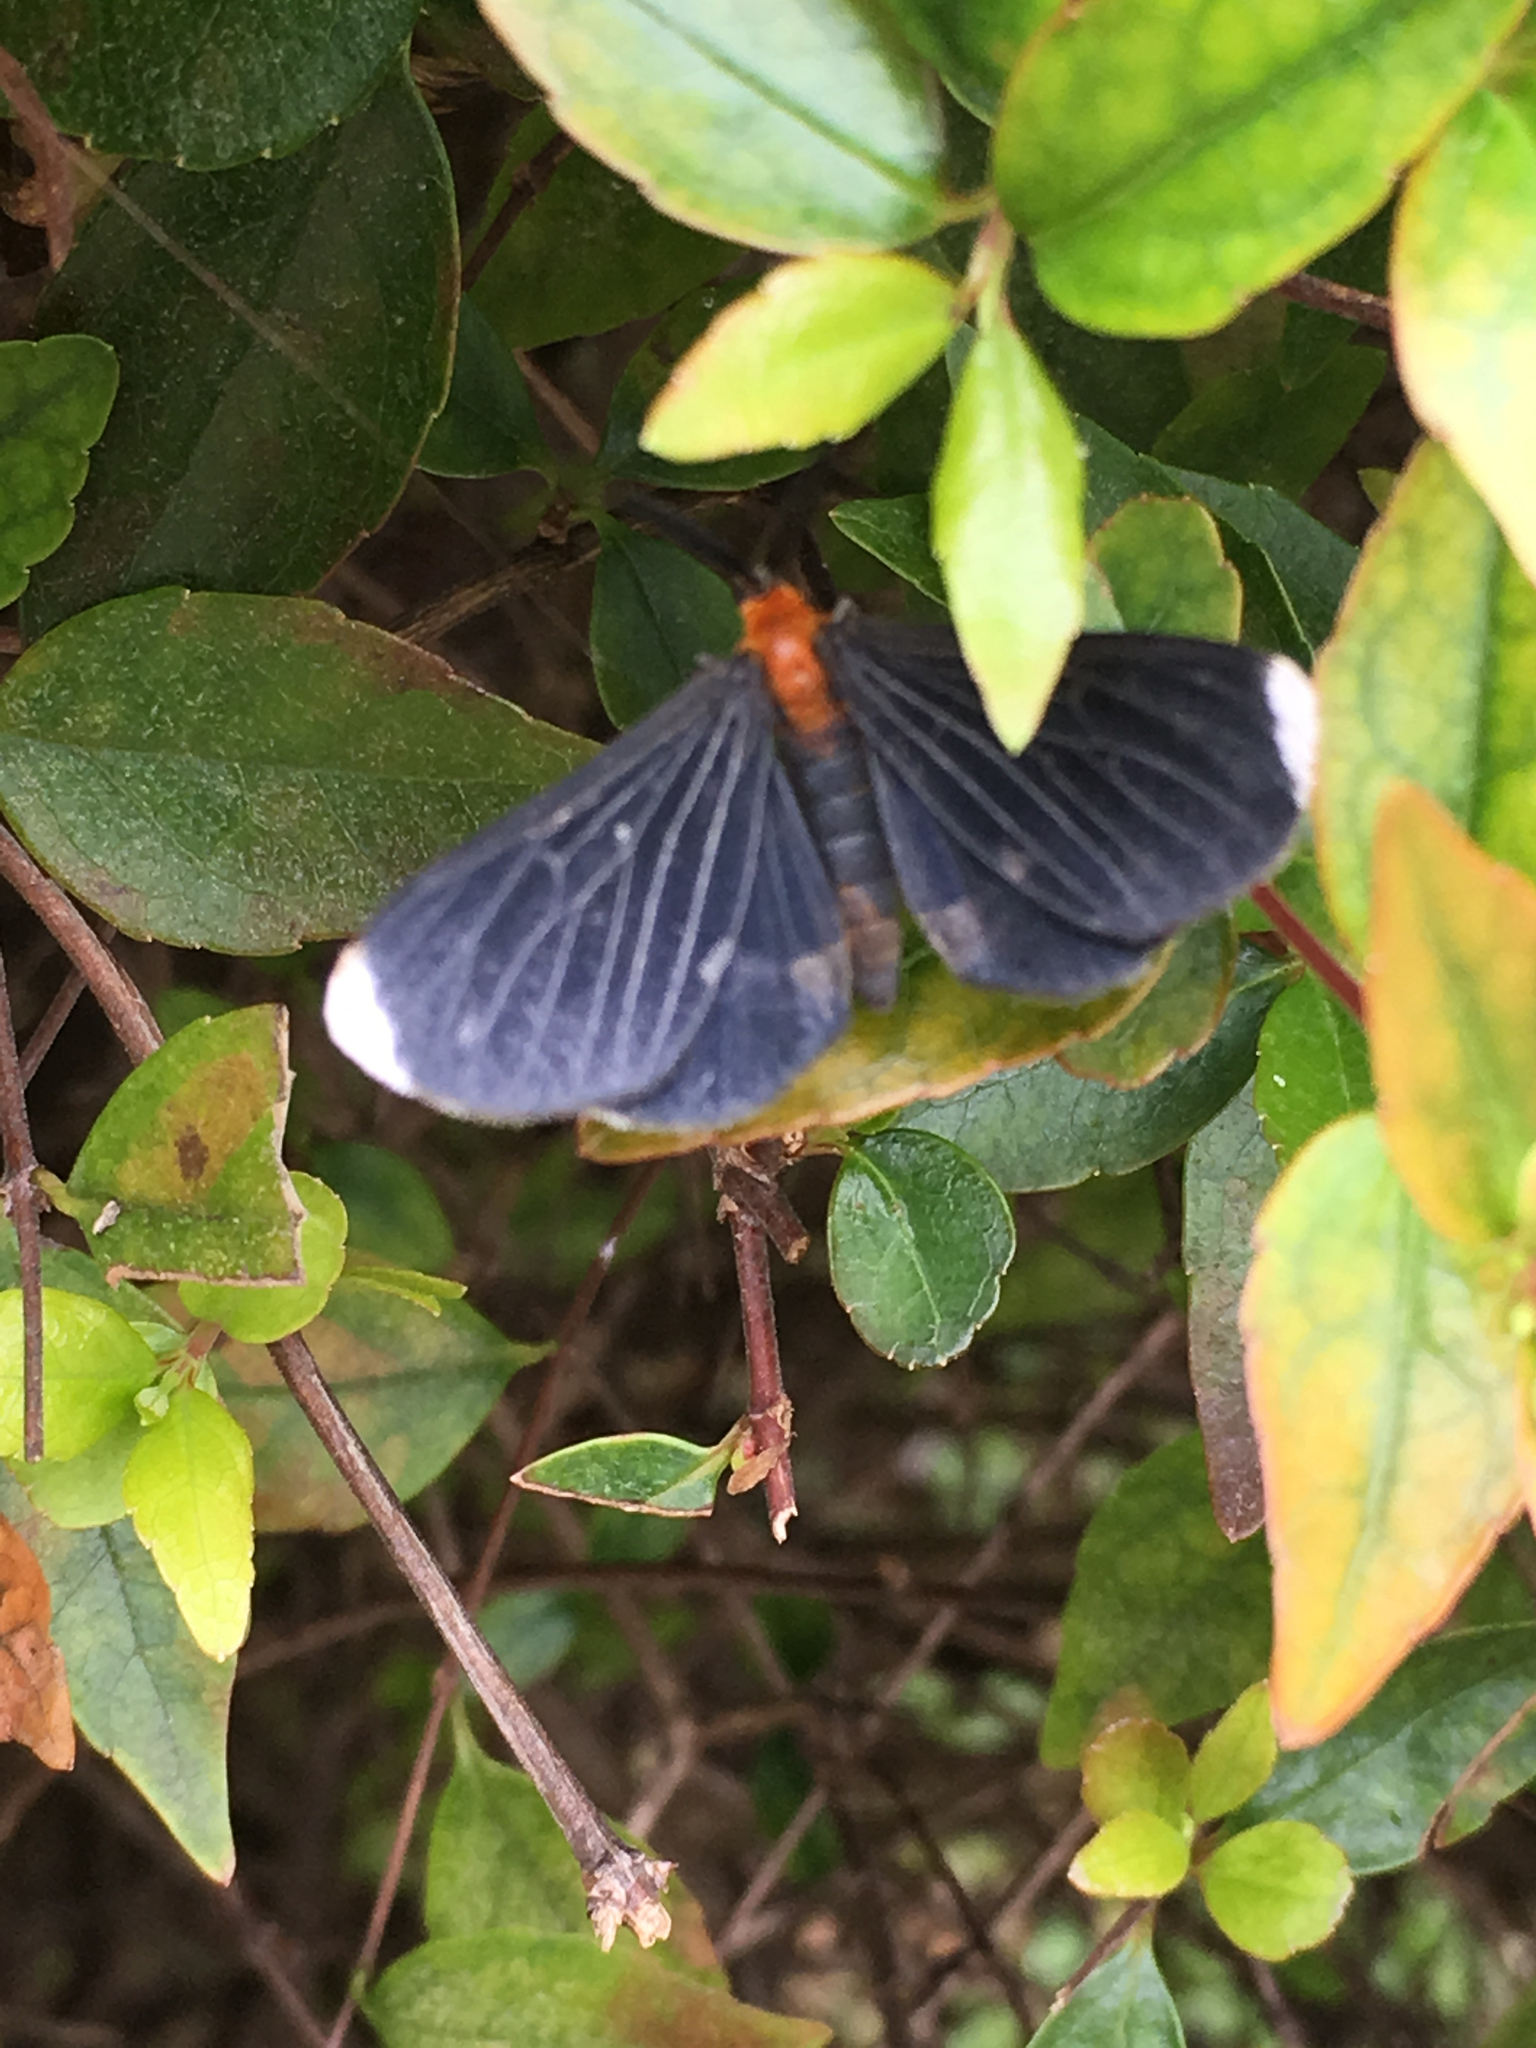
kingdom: Animalia
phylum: Arthropoda
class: Insecta
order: Lepidoptera
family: Geometridae
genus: Melanchroia
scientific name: Melanchroia chephise
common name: White-tipped black
